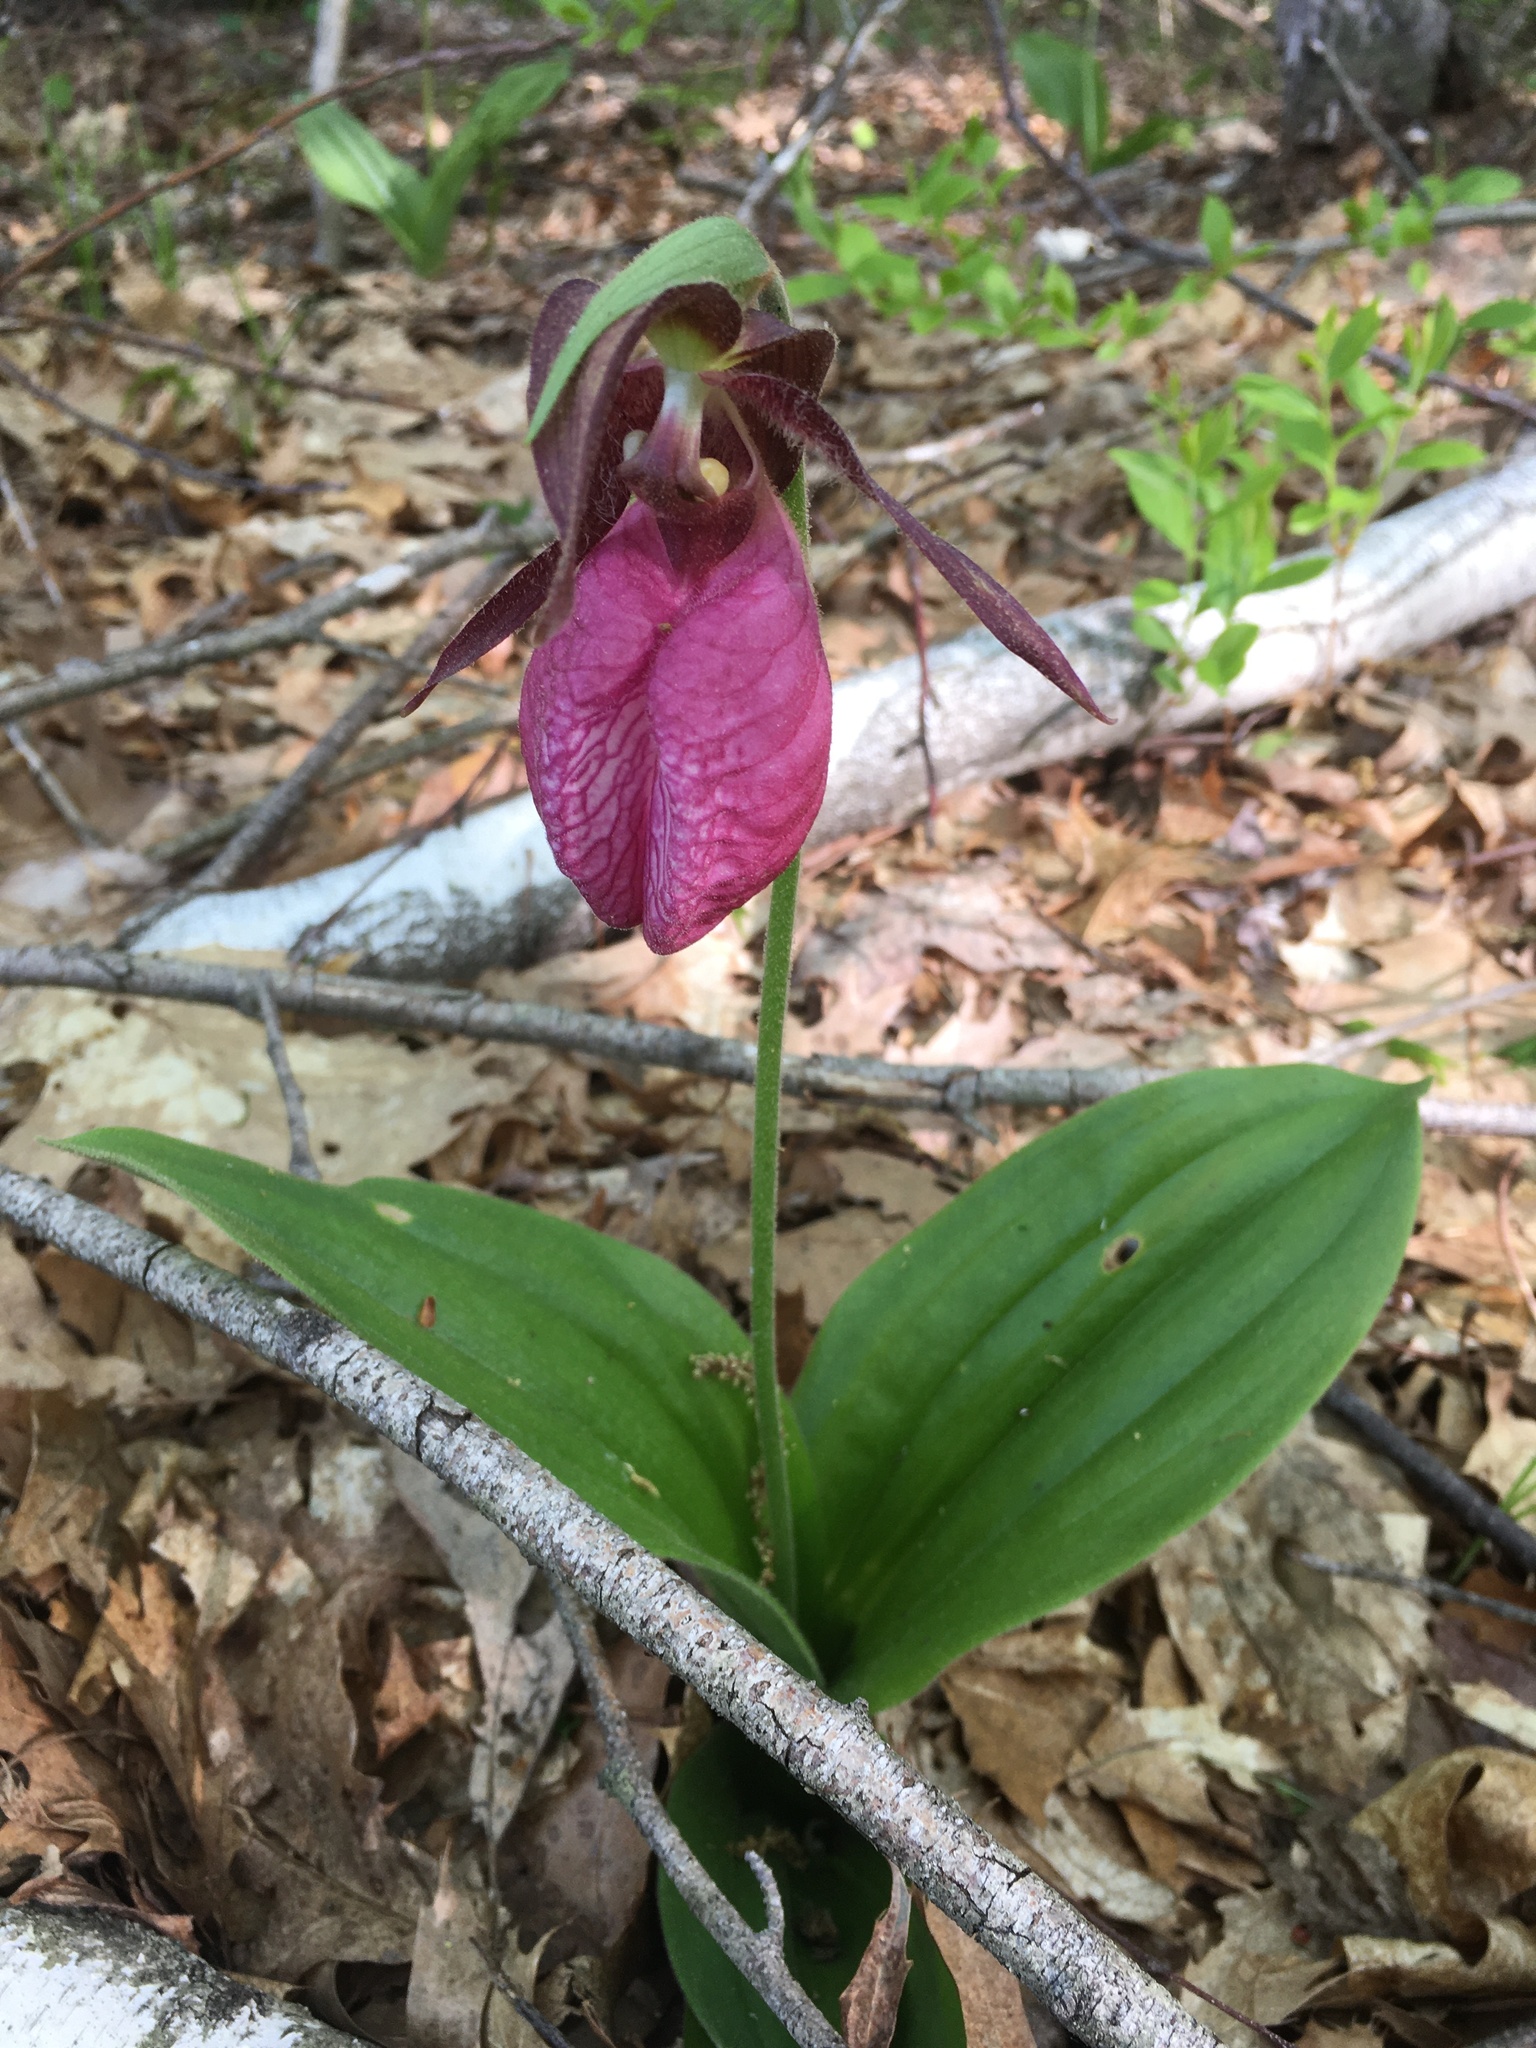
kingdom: Plantae
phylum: Tracheophyta
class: Liliopsida
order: Asparagales
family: Orchidaceae
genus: Cypripedium
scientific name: Cypripedium acaule
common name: Pink lady's-slipper
